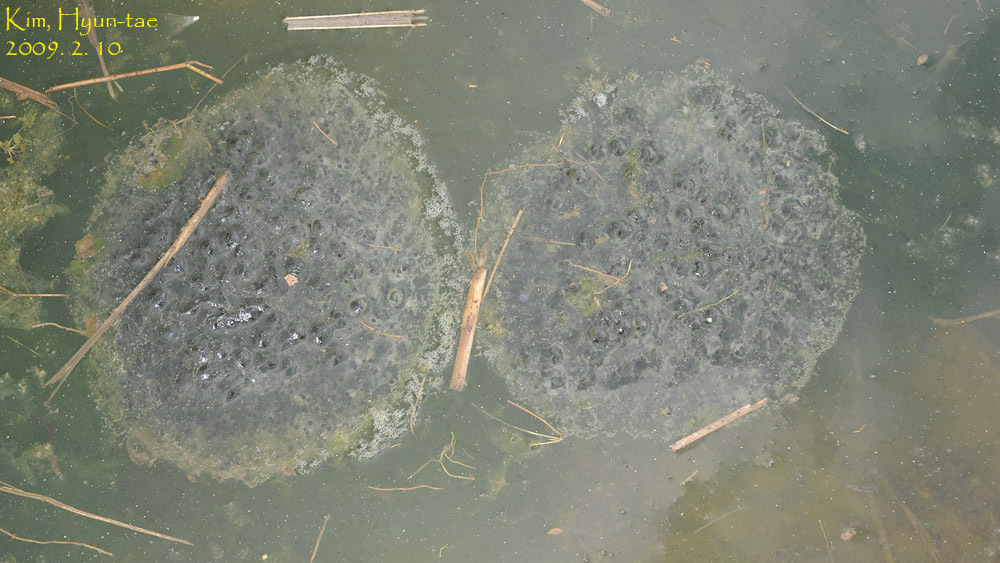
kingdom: Animalia
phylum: Chordata
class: Amphibia
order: Anura
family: Ranidae
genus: Rana
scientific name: Rana uenoi
